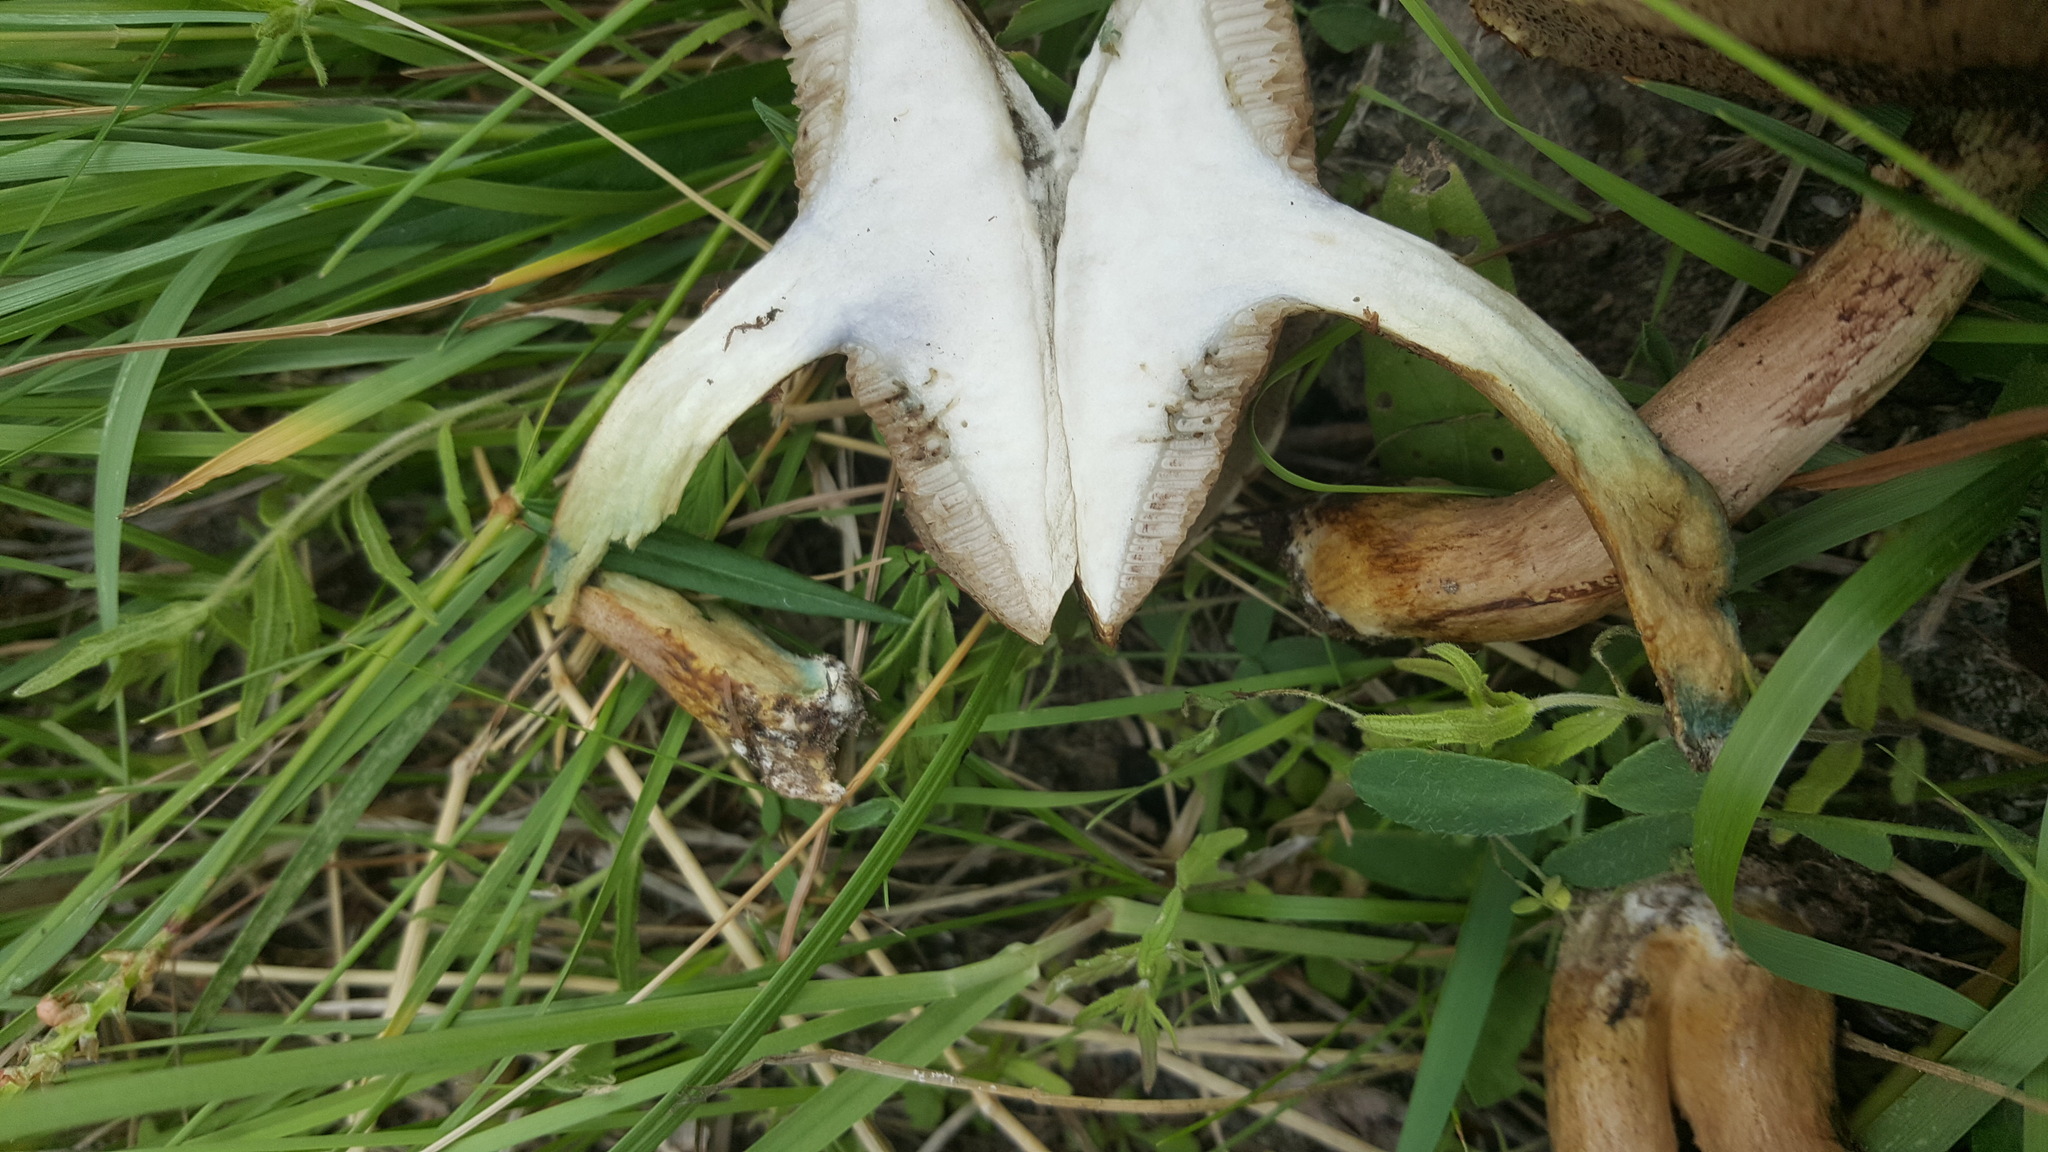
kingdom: Fungi
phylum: Basidiomycota
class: Agaricomycetes
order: Boletales
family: Suillaceae
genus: Suillus
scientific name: Suillus viscidus
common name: Sticky bolete
